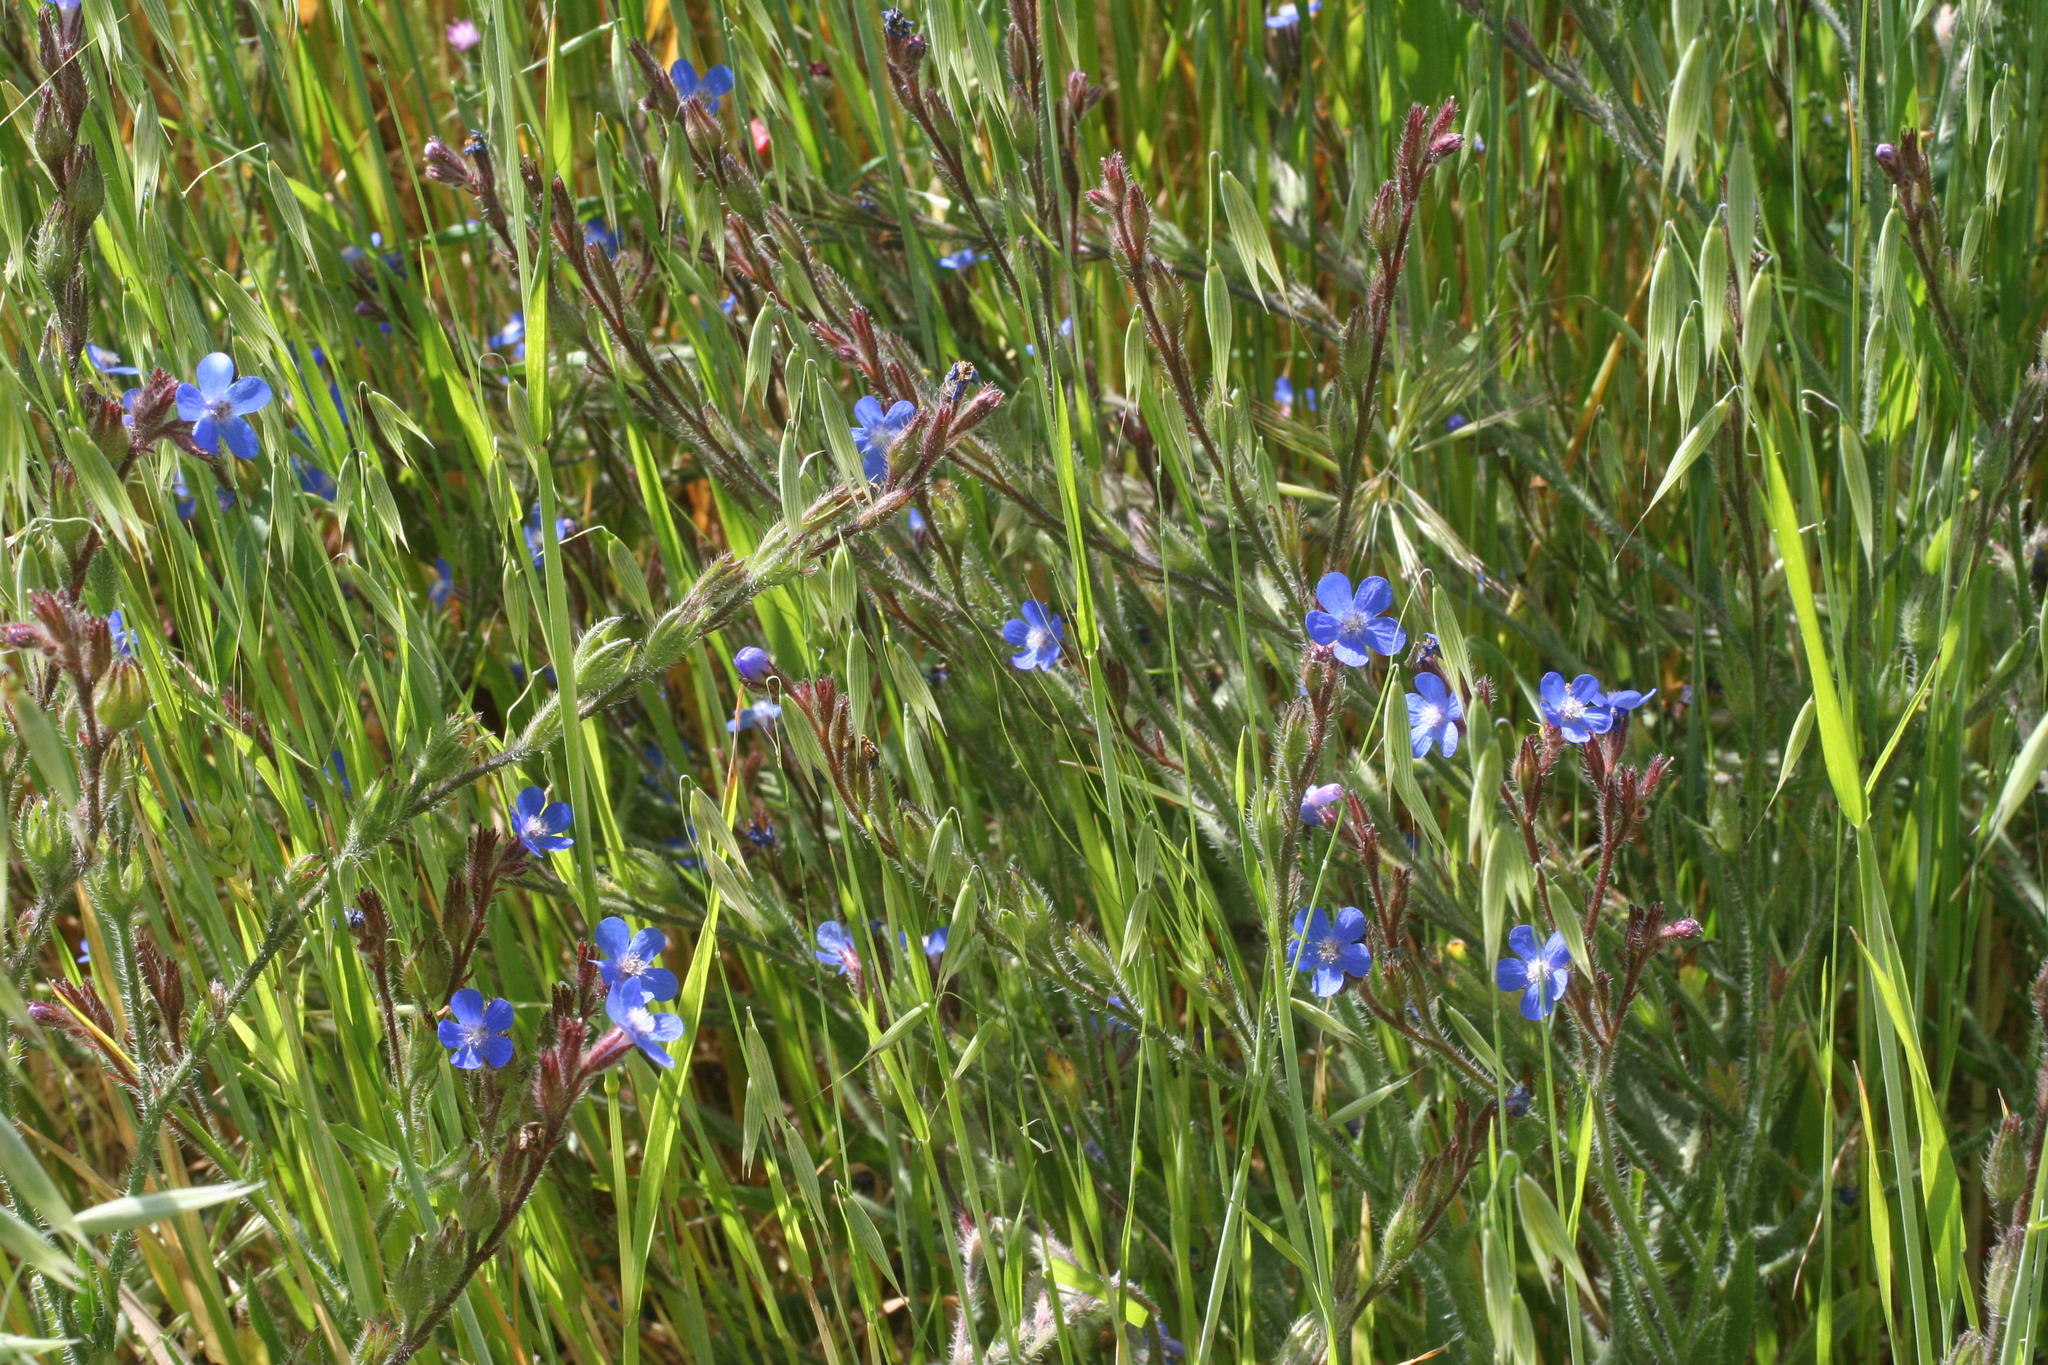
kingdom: Plantae
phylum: Tracheophyta
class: Magnoliopsida
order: Boraginales
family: Boraginaceae
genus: Anchusa
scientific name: Anchusa azurea
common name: Garden anchusa
